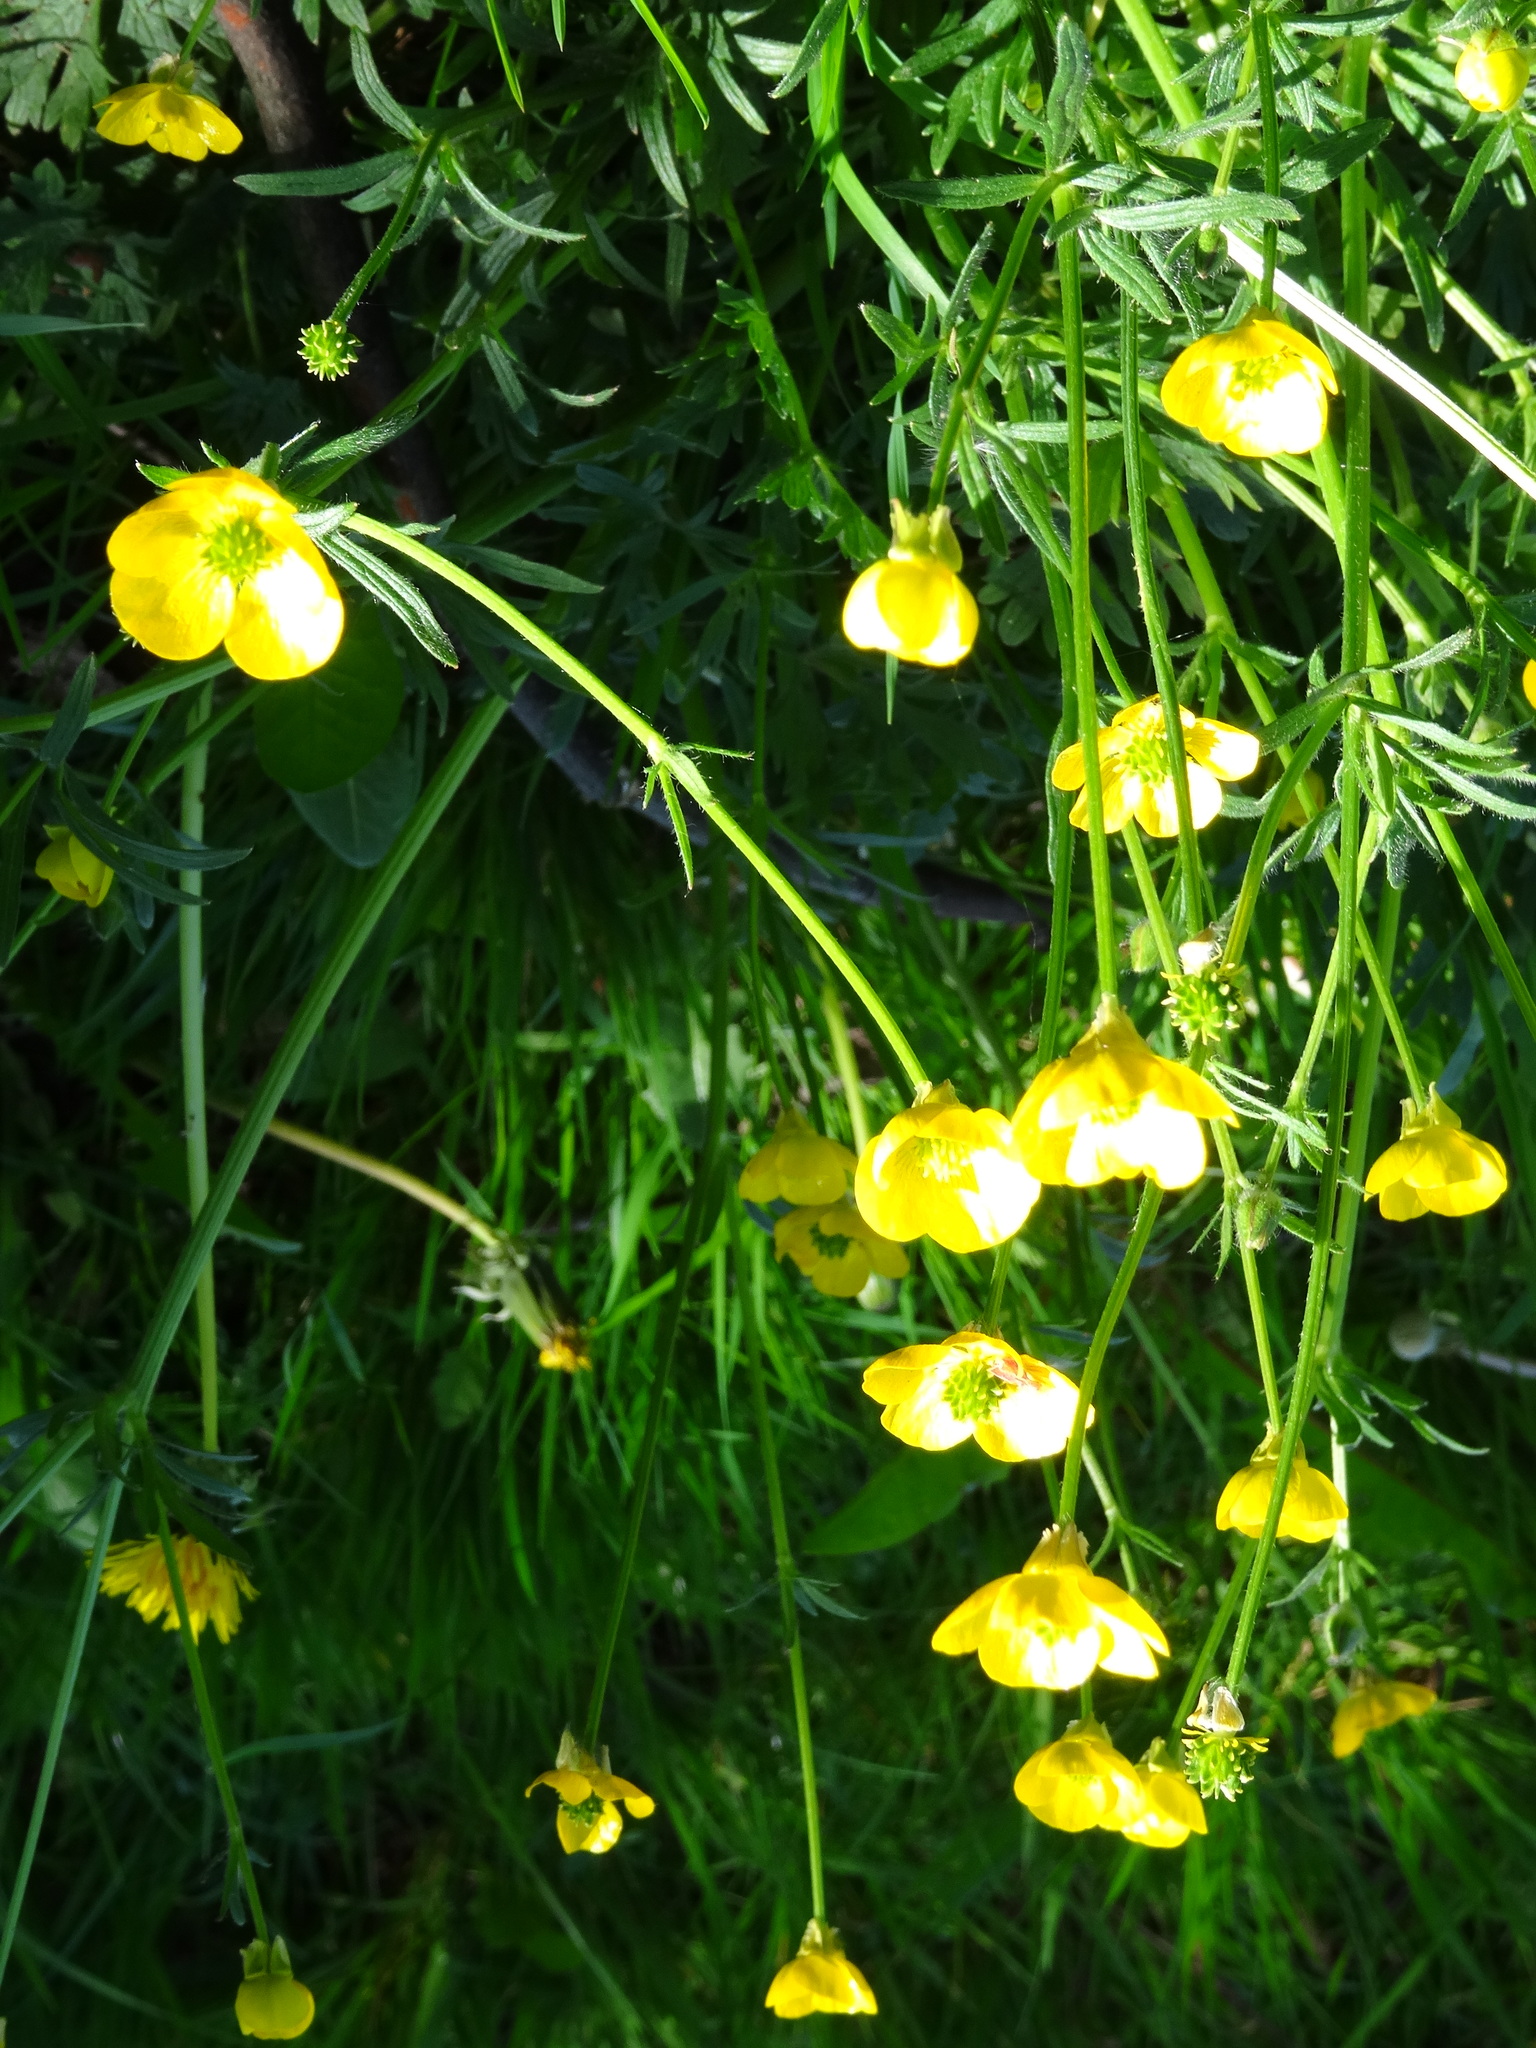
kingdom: Plantae
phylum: Tracheophyta
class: Magnoliopsida
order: Ranunculales
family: Ranunculaceae
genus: Ranunculus
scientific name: Ranunculus bulbosus
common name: Bulbous buttercup
